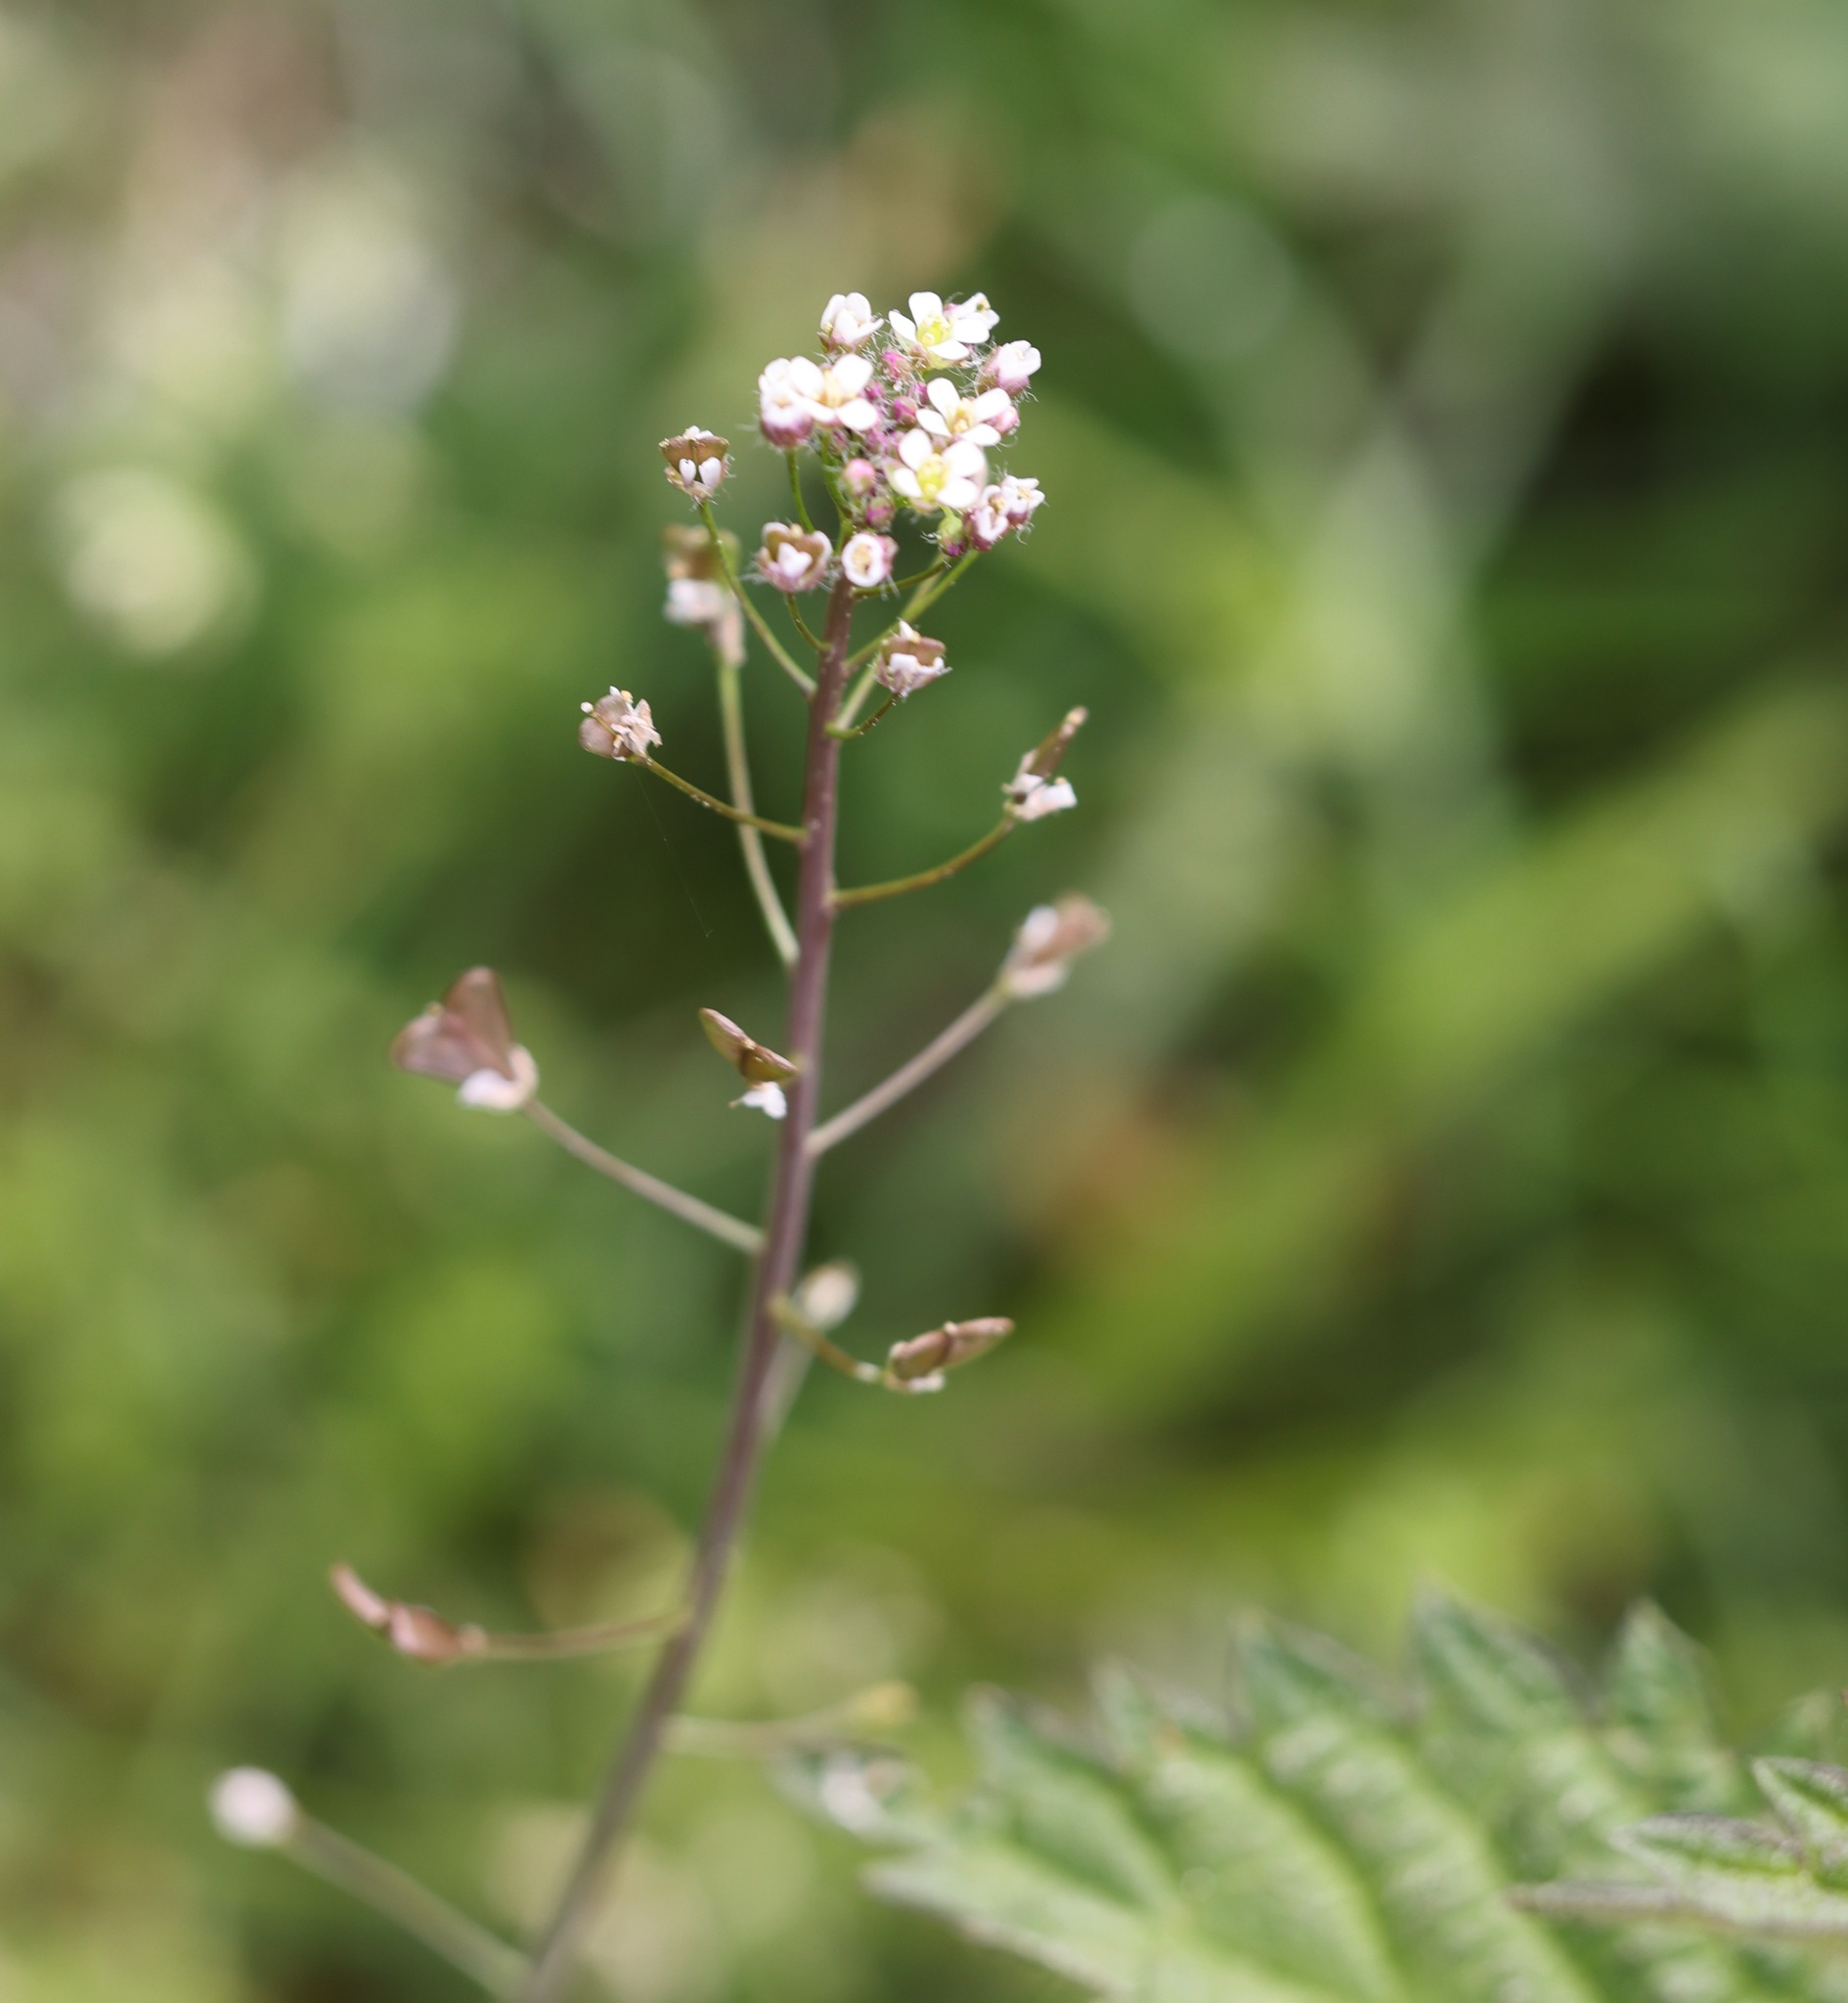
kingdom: Plantae
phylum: Tracheophyta
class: Magnoliopsida
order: Brassicales
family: Brassicaceae
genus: Capsella
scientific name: Capsella bursa-pastoris
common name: Shepherd's purse
